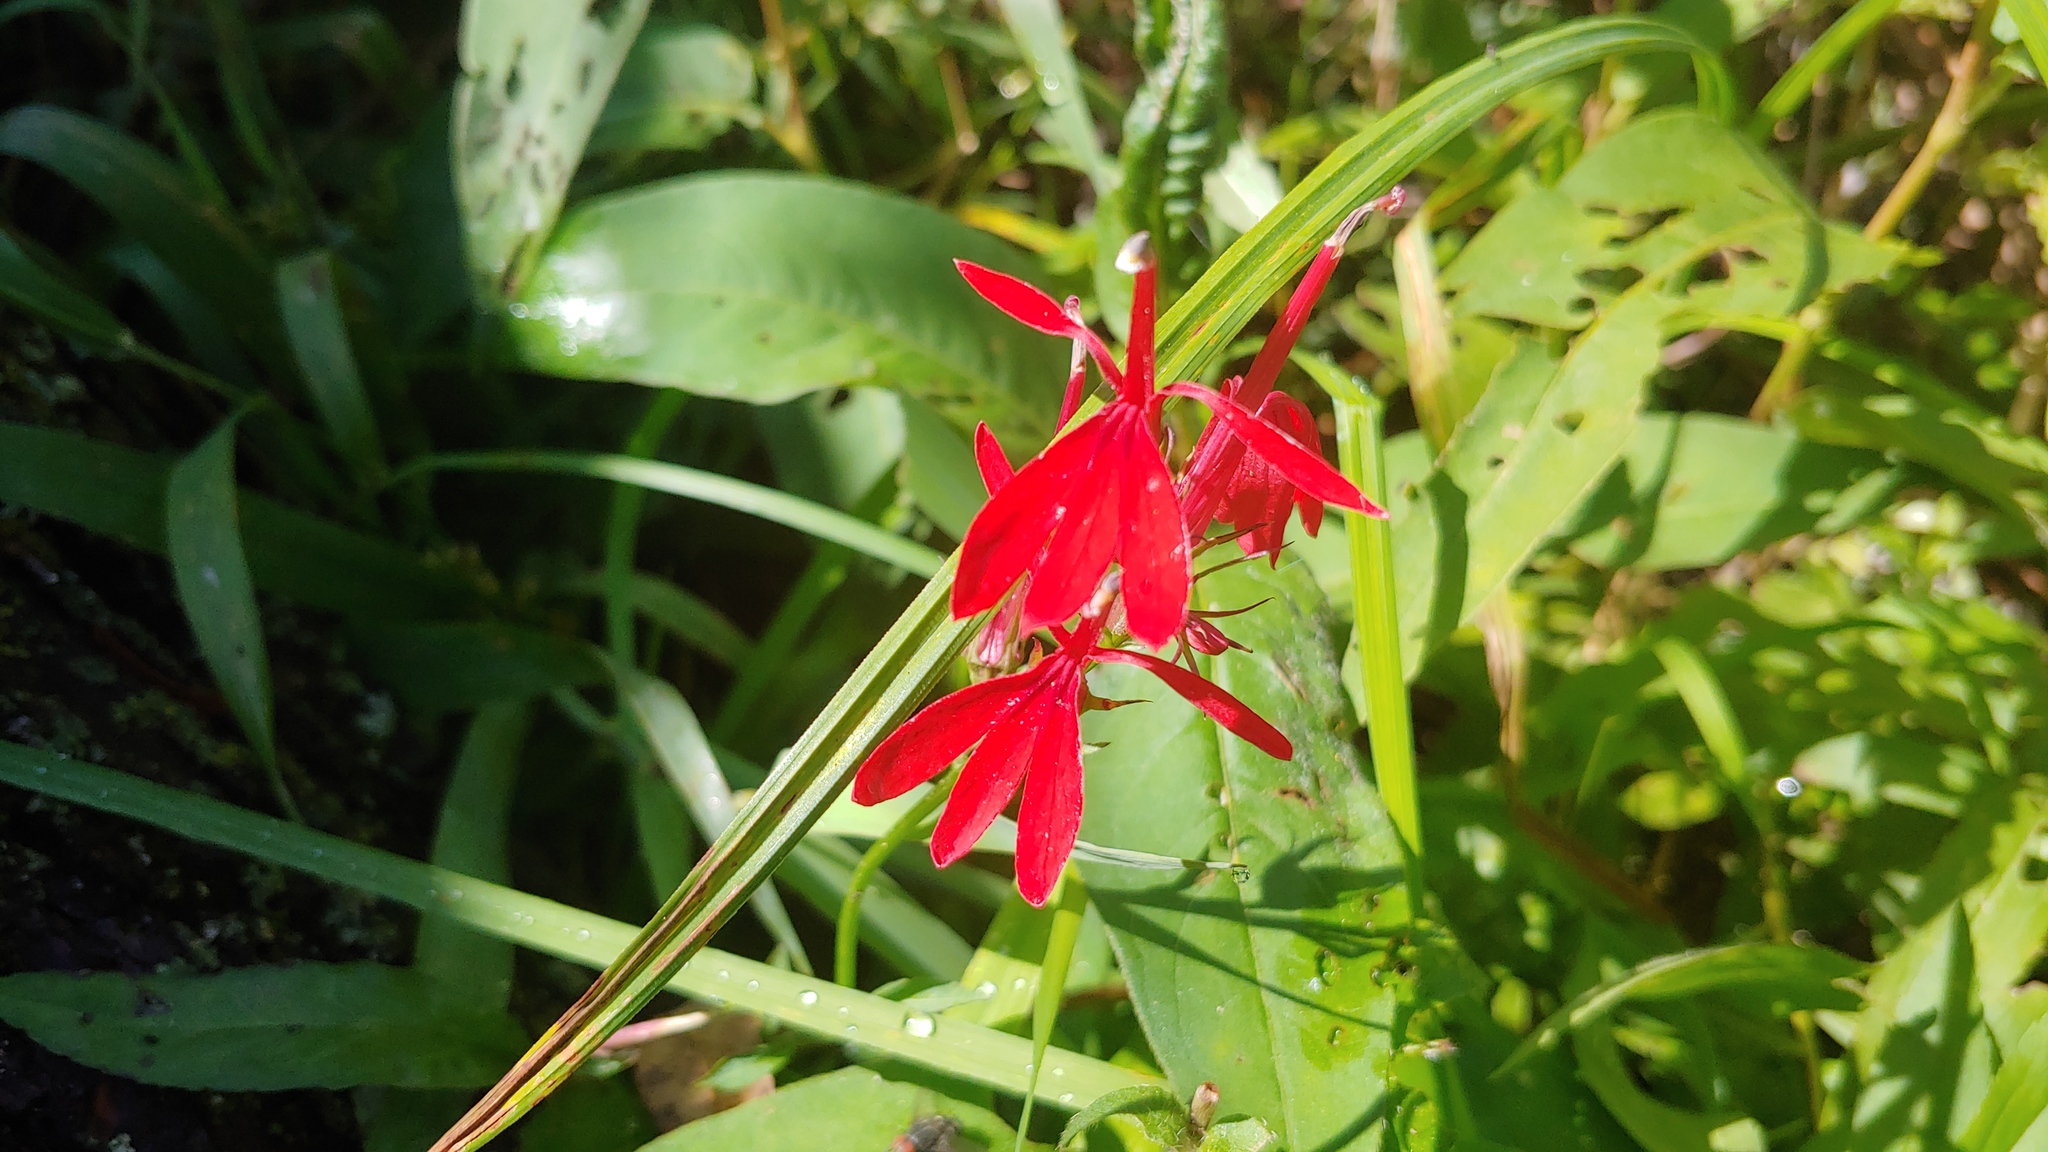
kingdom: Plantae
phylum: Tracheophyta
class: Magnoliopsida
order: Asterales
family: Campanulaceae
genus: Lobelia
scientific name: Lobelia cardinalis
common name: Cardinal flower
